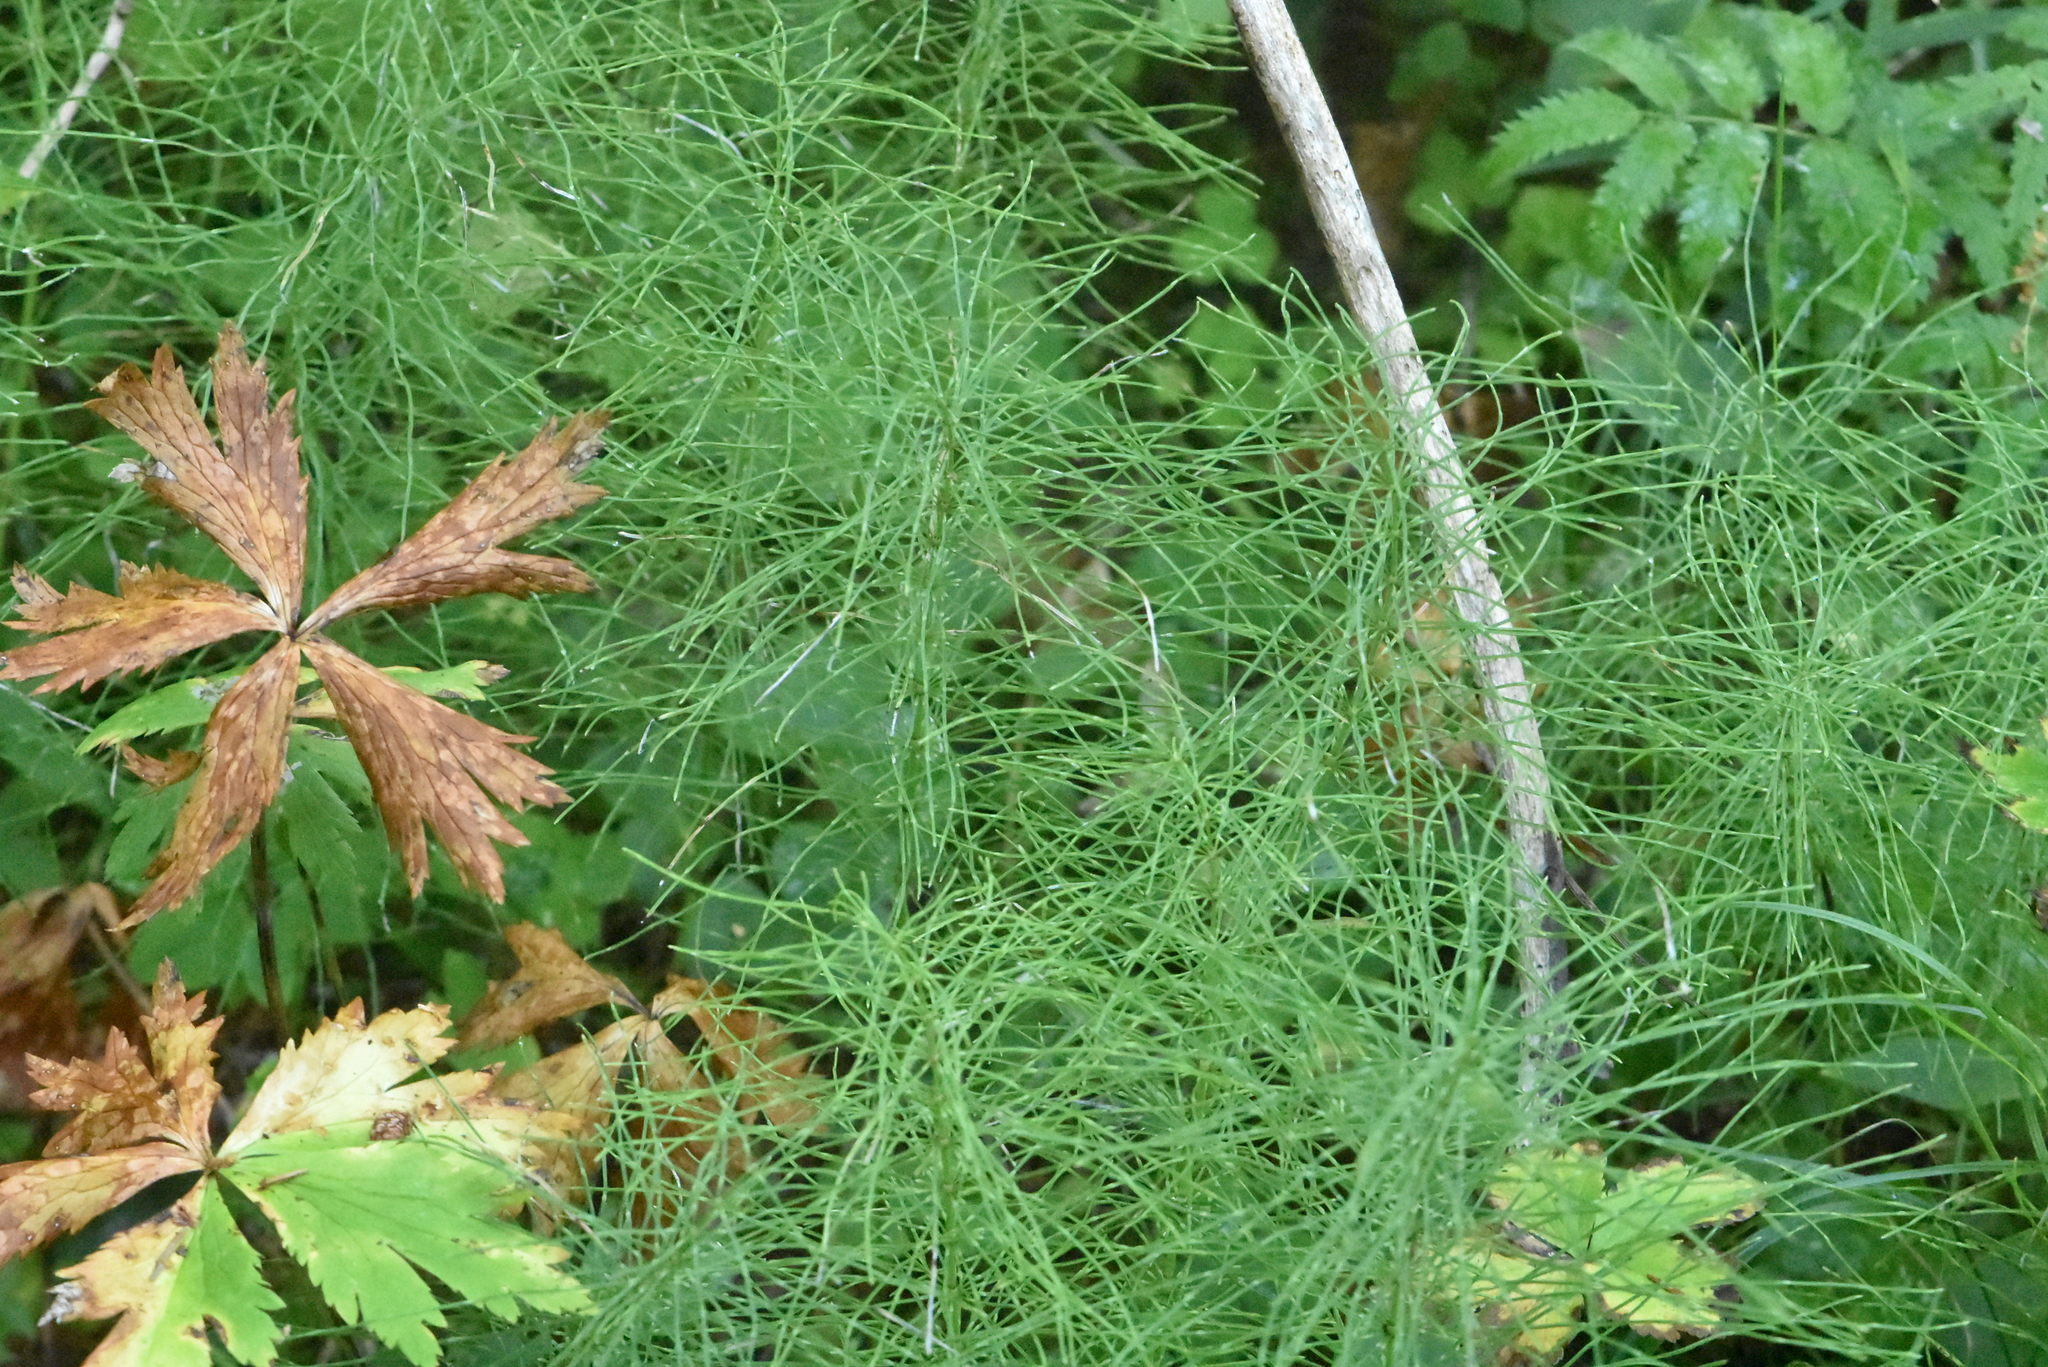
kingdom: Plantae
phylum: Tracheophyta
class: Polypodiopsida
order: Equisetales
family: Equisetaceae
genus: Equisetum
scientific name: Equisetum pratense
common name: Meadow horsetail
